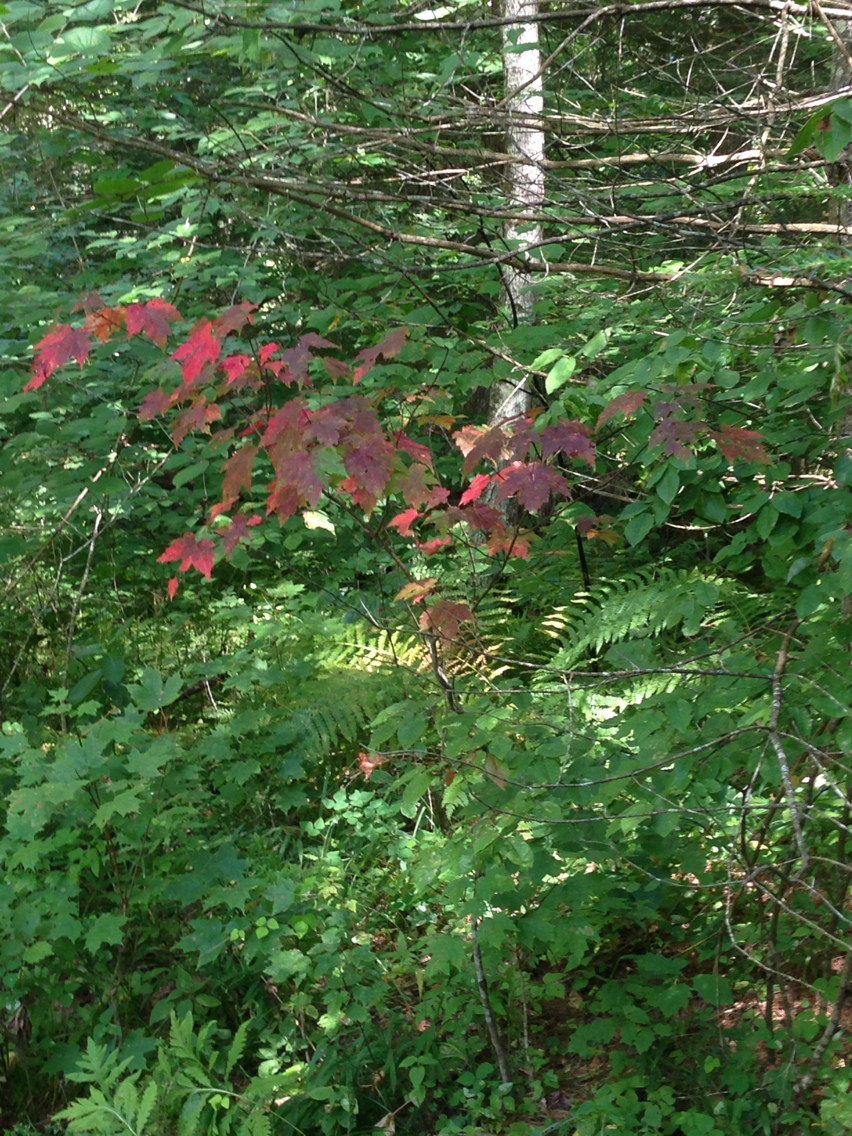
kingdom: Plantae
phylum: Tracheophyta
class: Magnoliopsida
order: Sapindales
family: Sapindaceae
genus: Acer
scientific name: Acer rubrum
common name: Red maple
